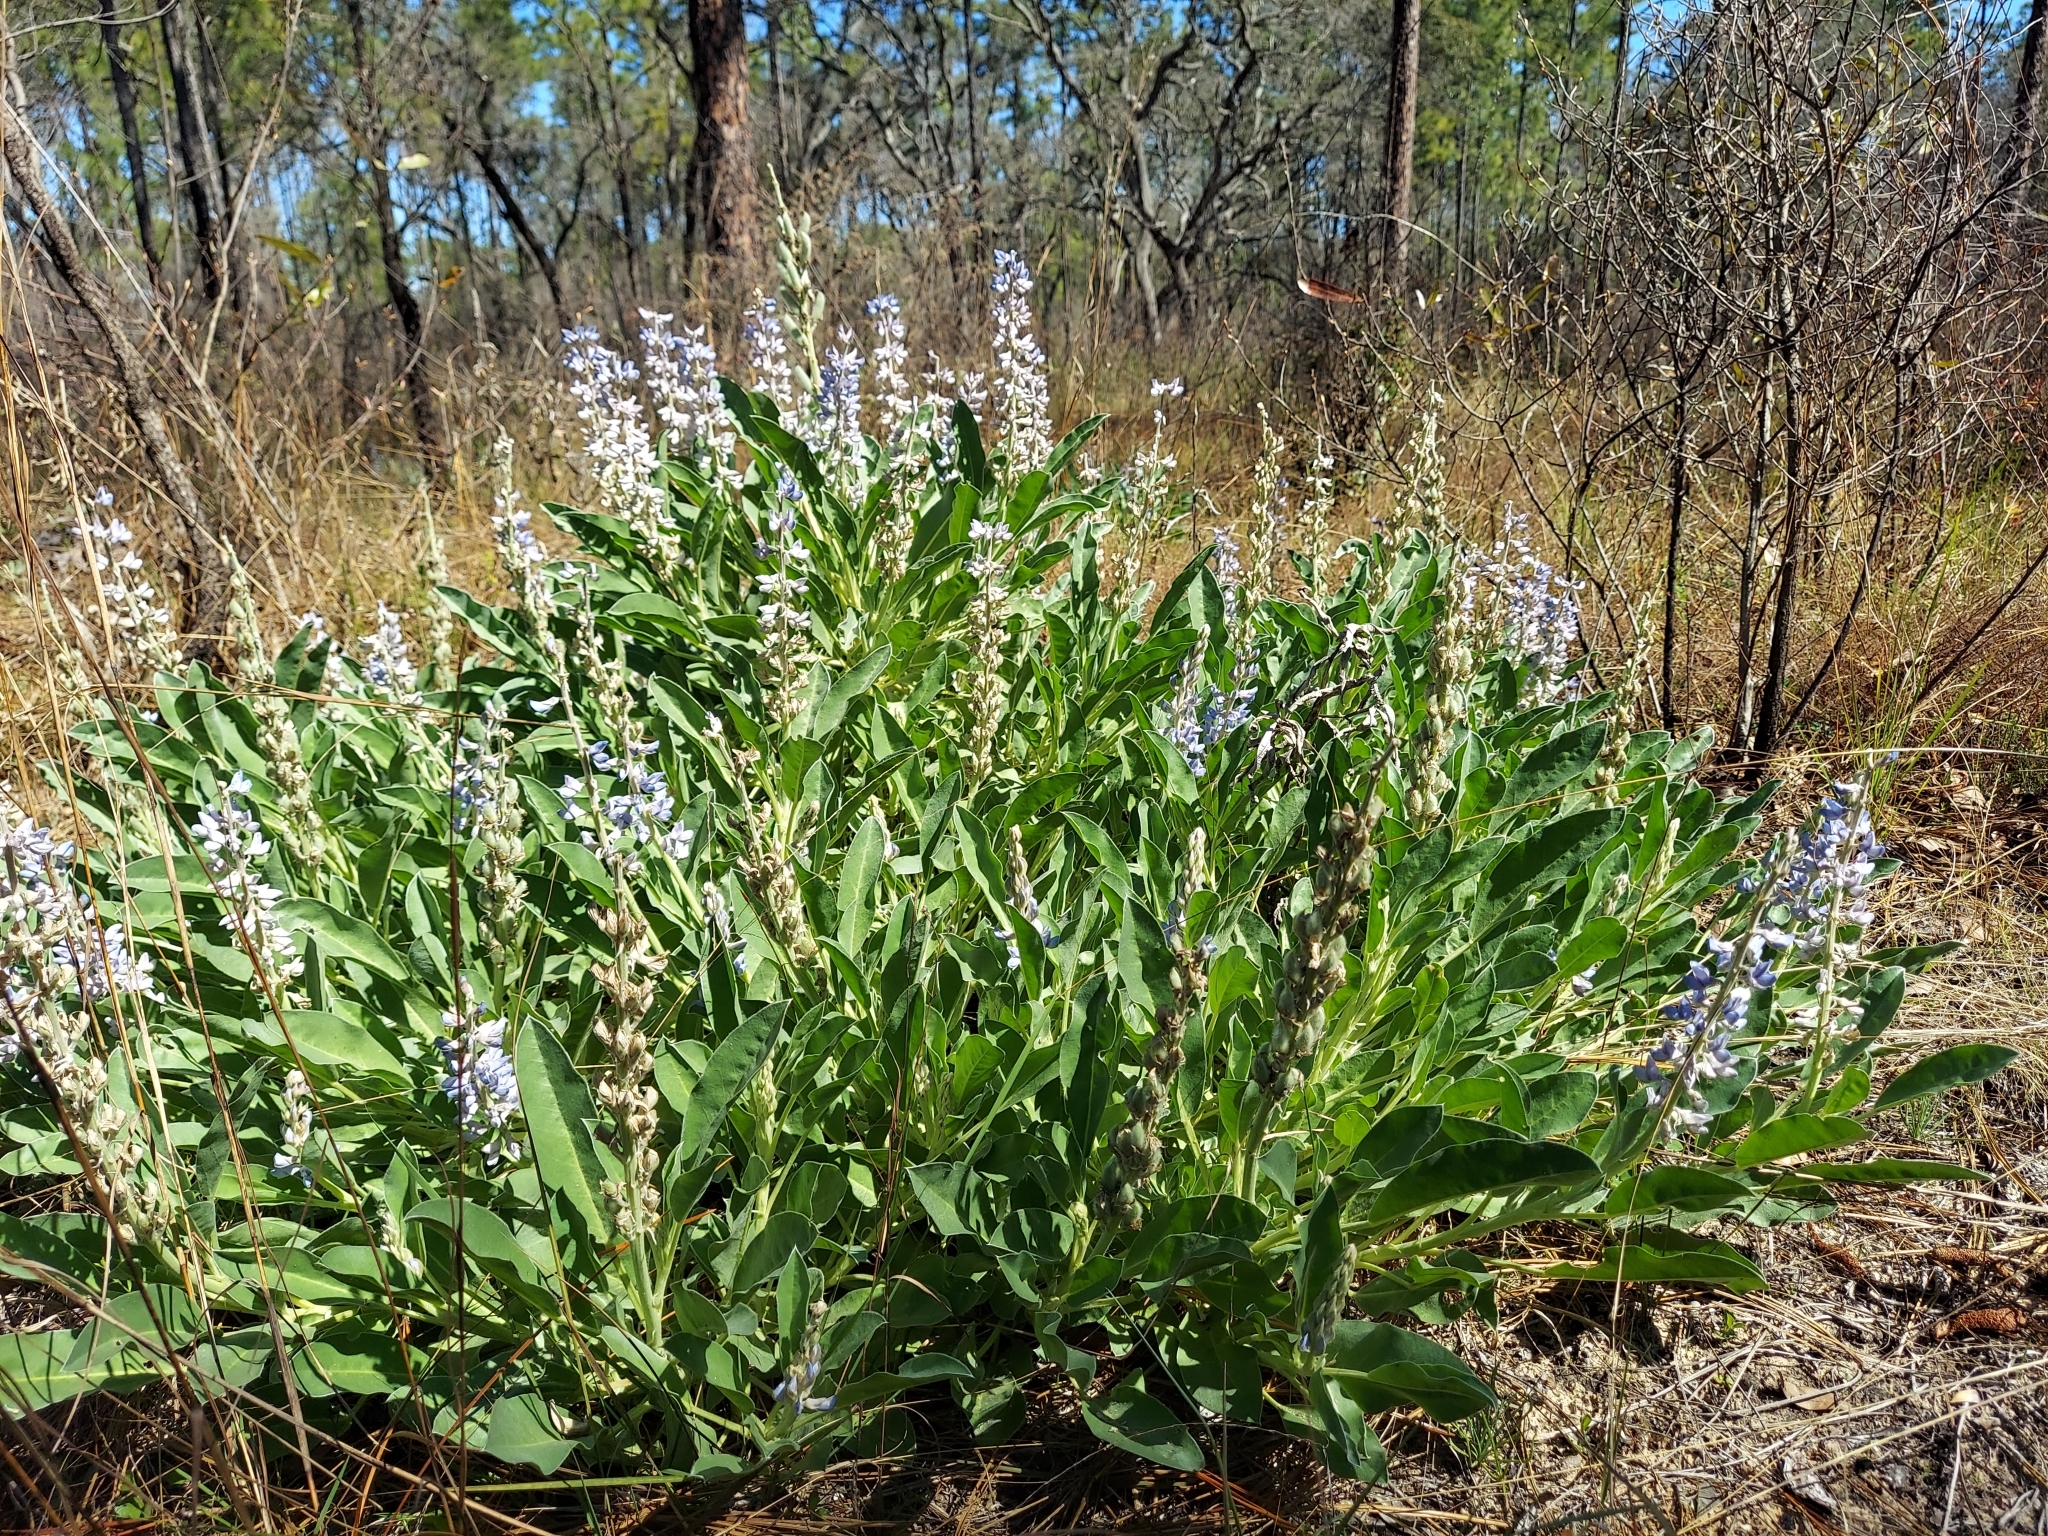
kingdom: Plantae
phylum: Tracheophyta
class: Magnoliopsida
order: Fabales
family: Fabaceae
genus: Lupinus
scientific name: Lupinus
